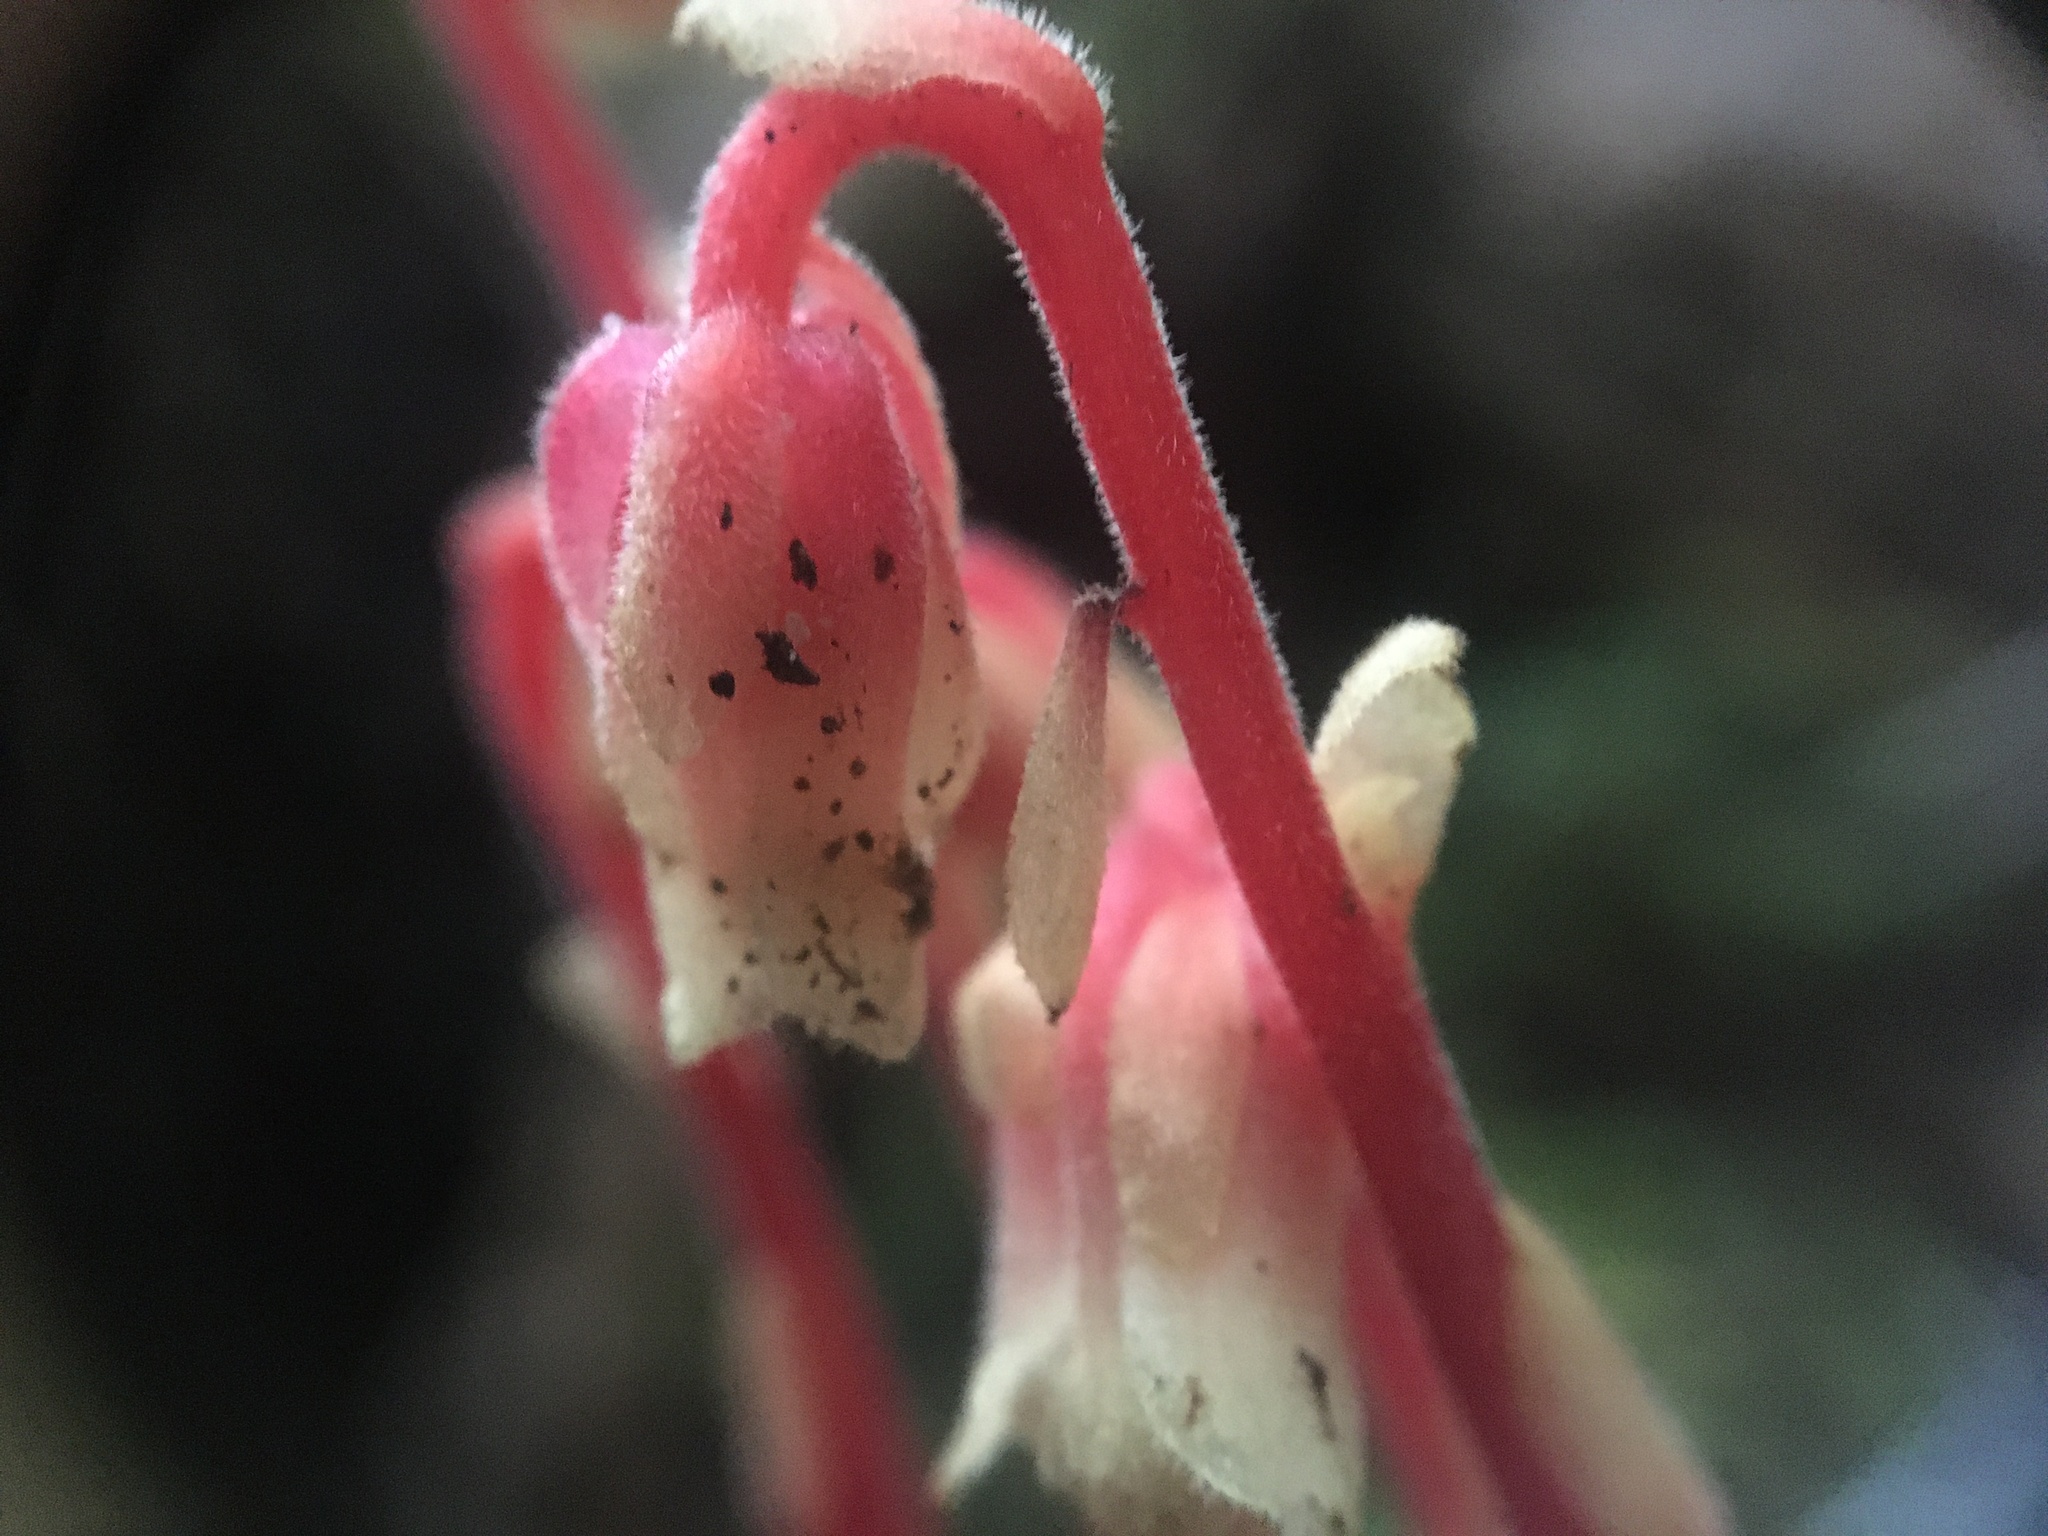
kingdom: Plantae
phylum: Tracheophyta
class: Magnoliopsida
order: Ericales
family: Ericaceae
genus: Hypopitys
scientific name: Hypopitys monotropa
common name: Yellow bird's-nest
